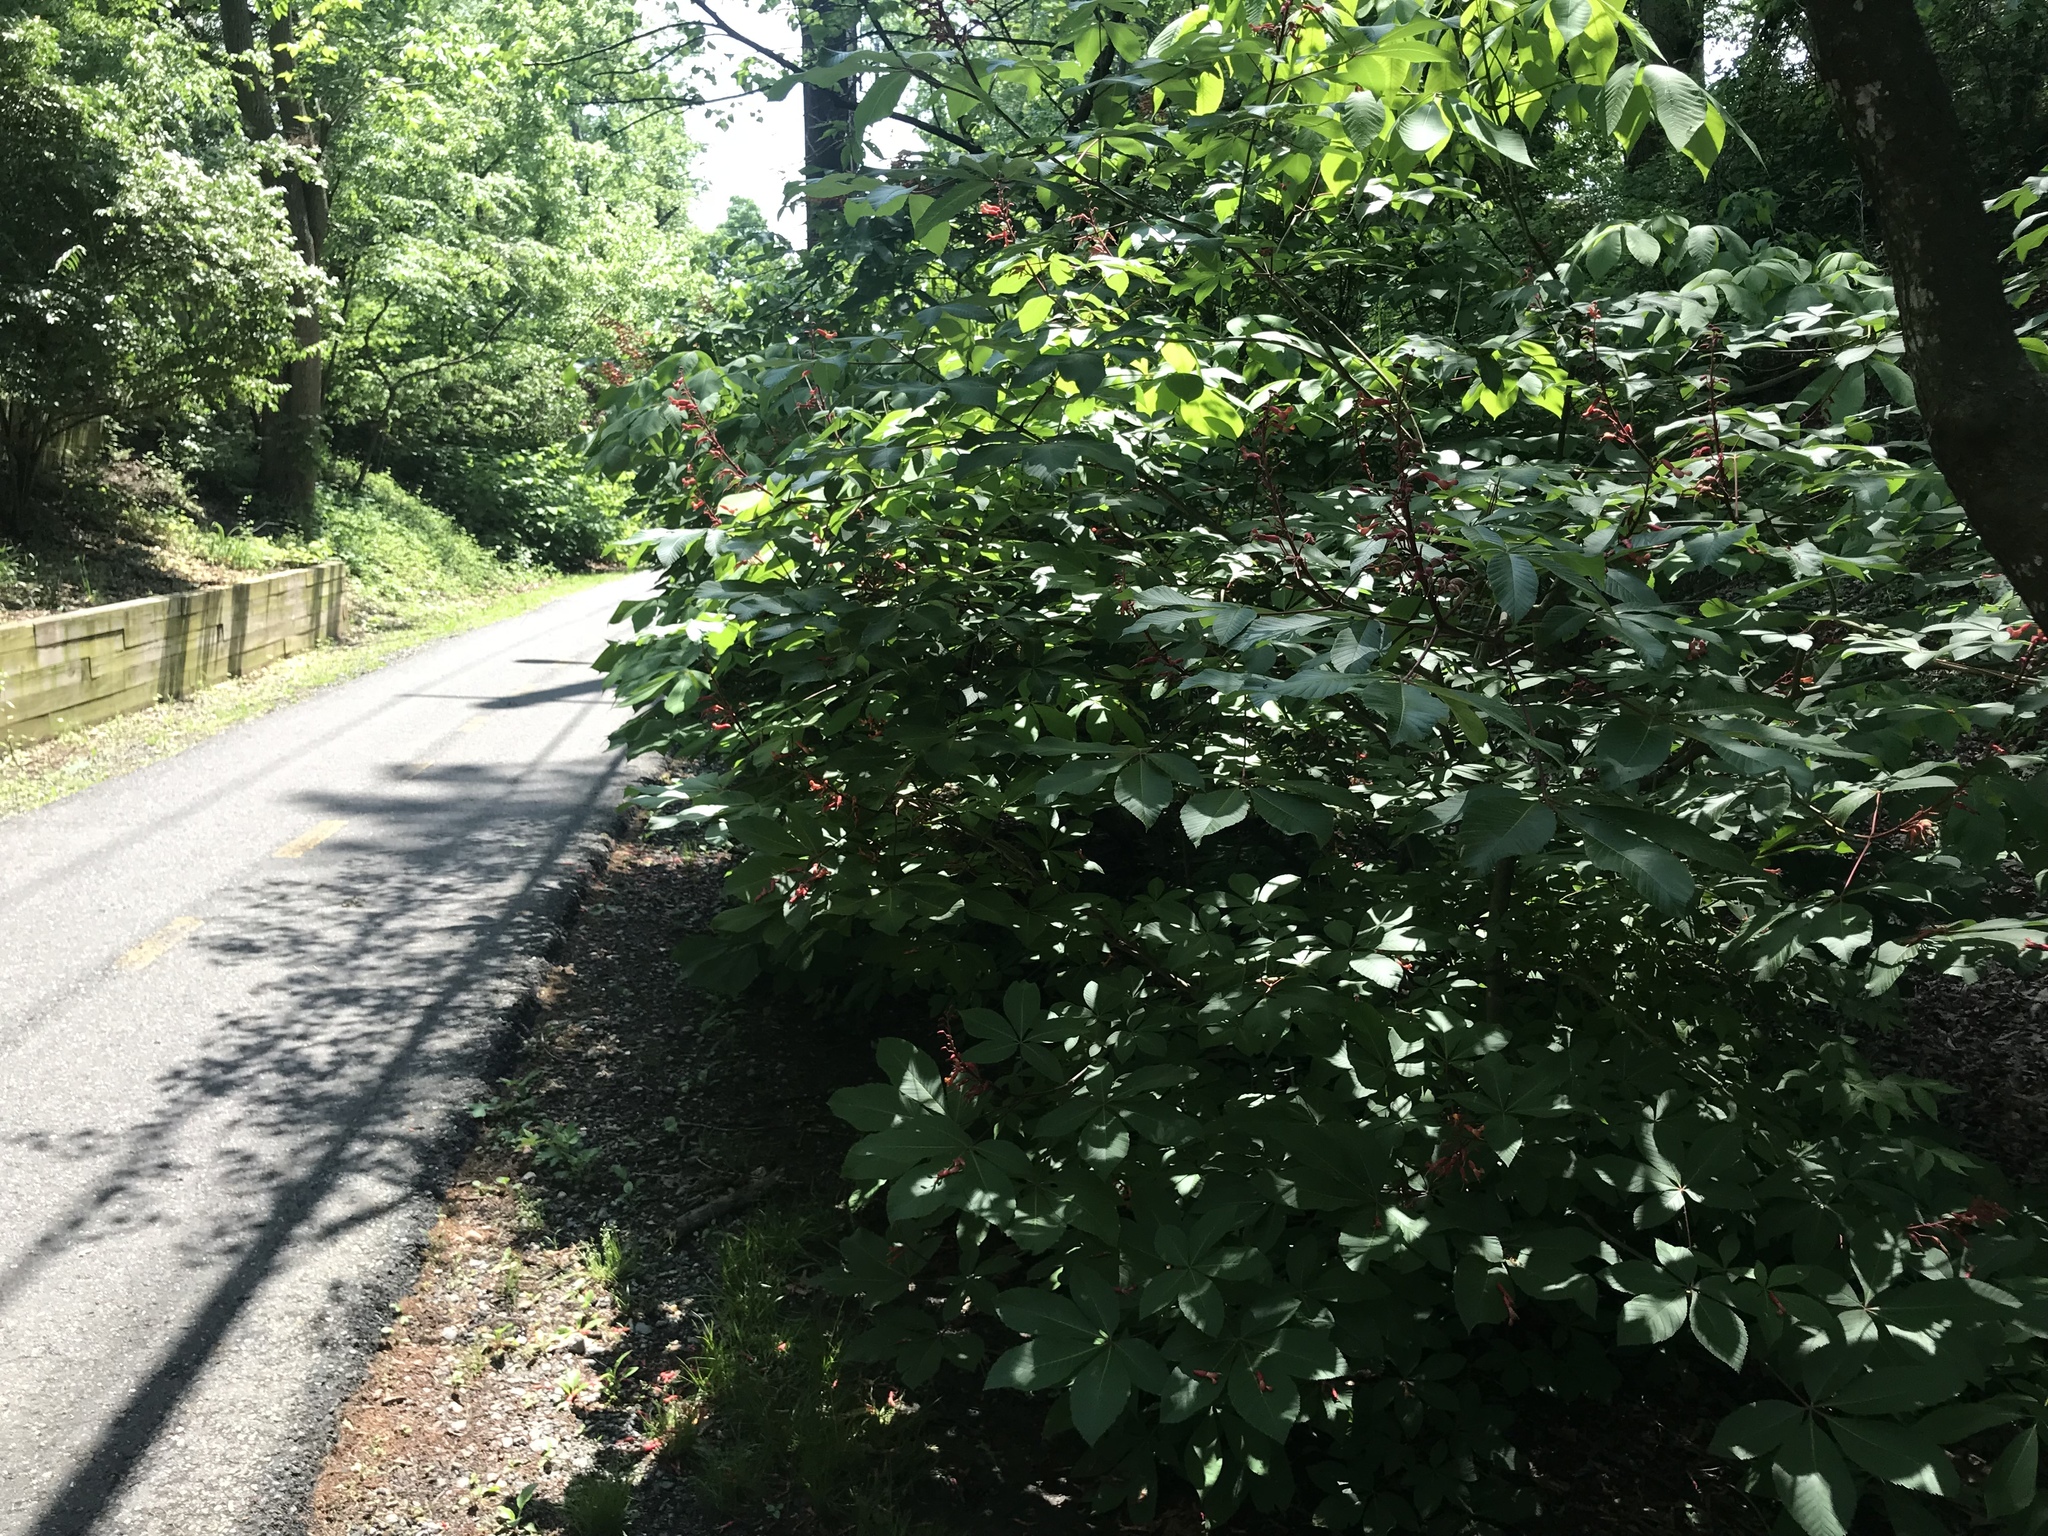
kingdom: Plantae
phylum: Tracheophyta
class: Magnoliopsida
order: Sapindales
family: Sapindaceae
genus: Aesculus
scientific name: Aesculus pavia
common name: Red buckeye
